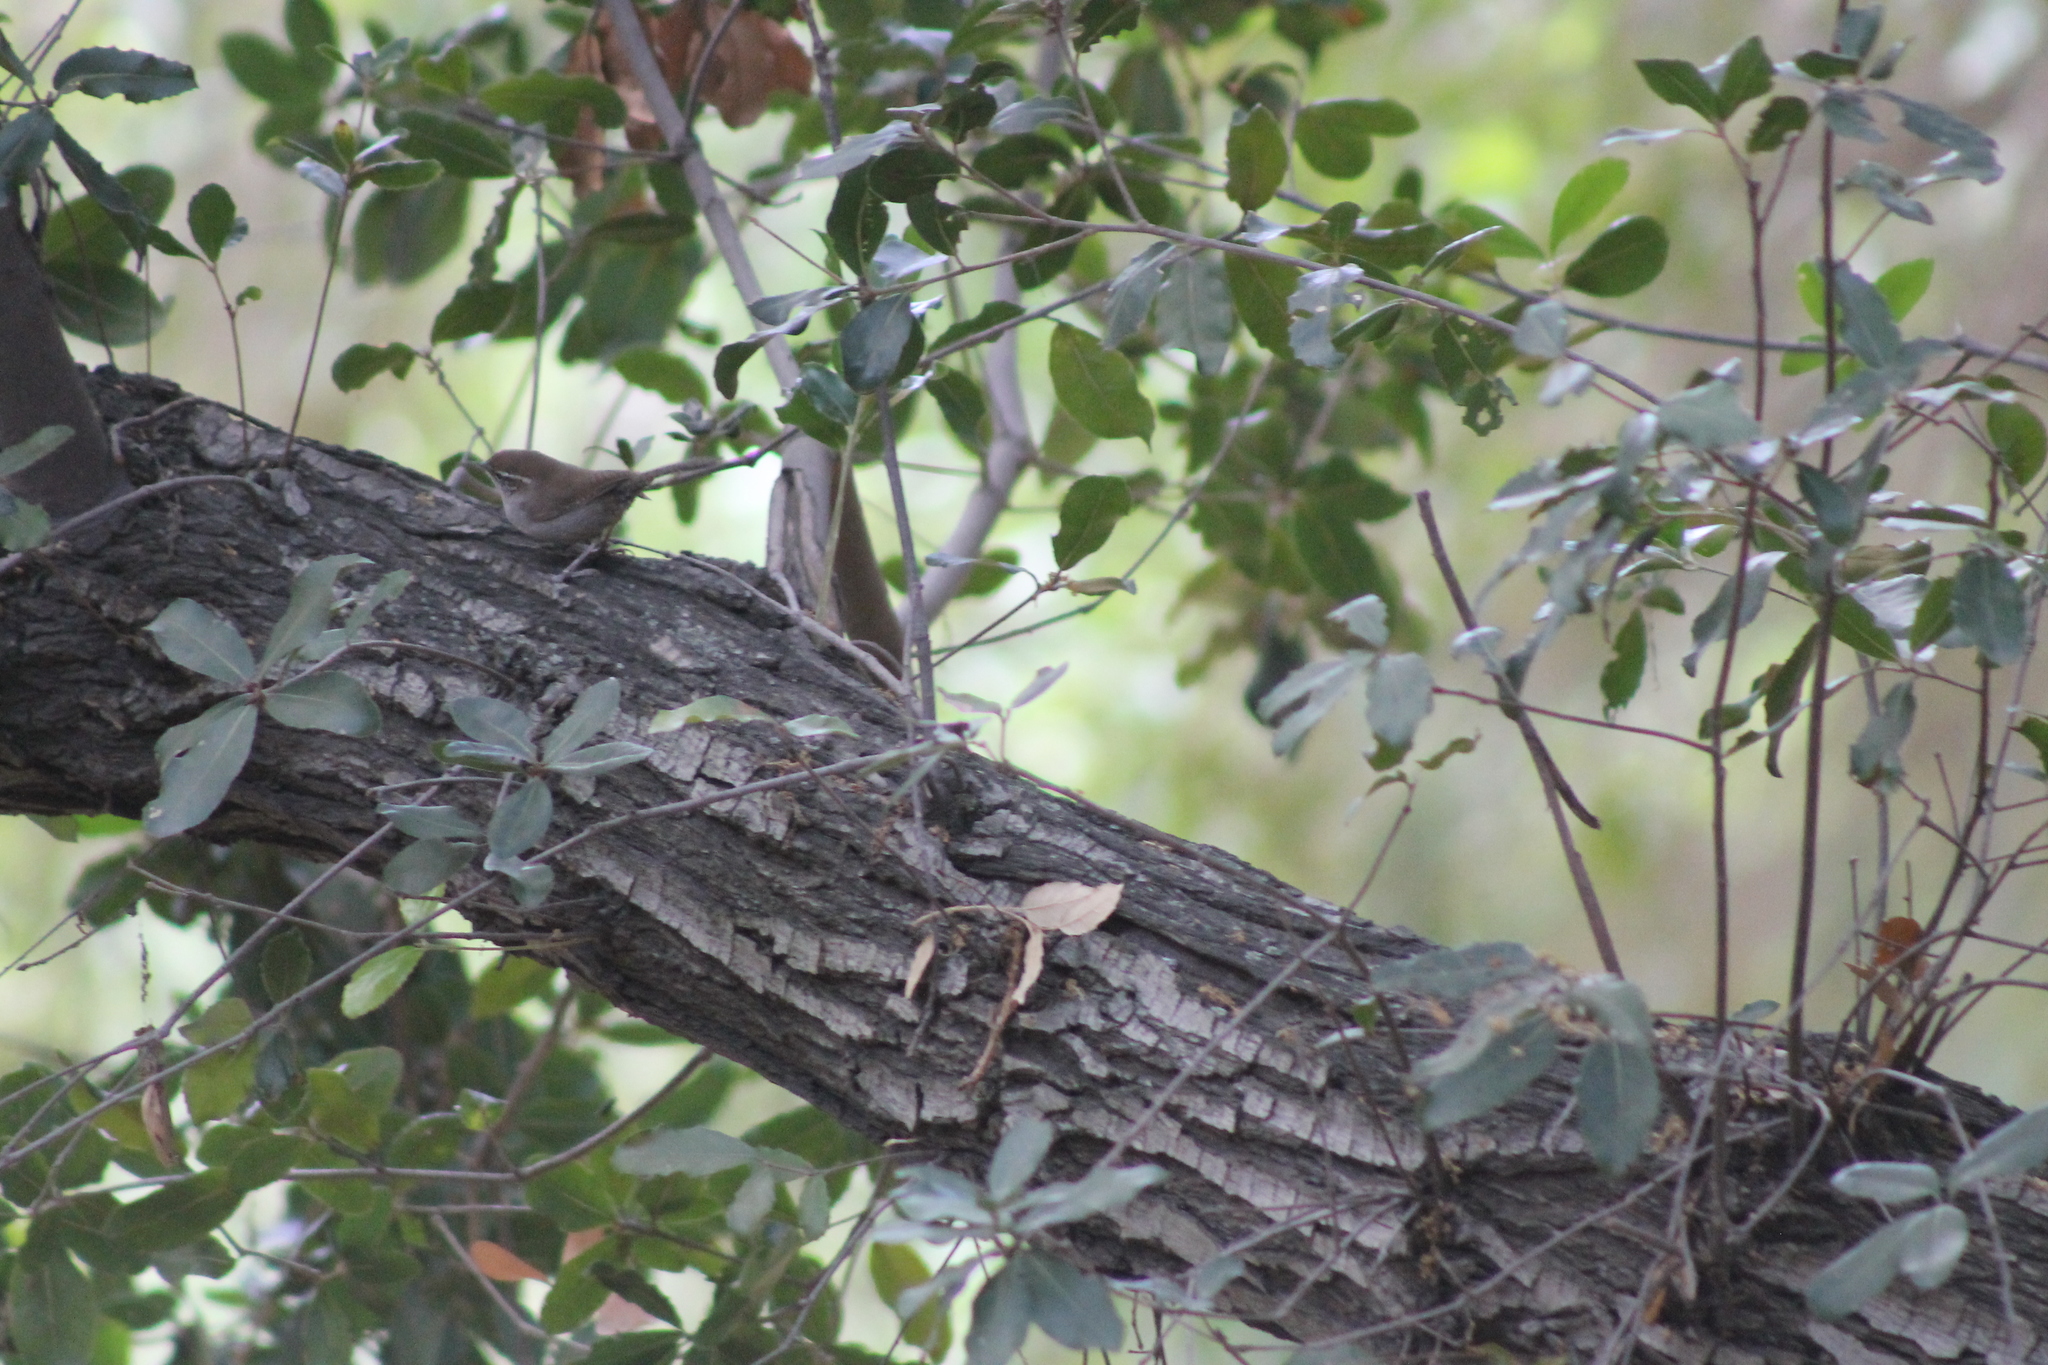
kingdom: Animalia
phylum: Chordata
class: Aves
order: Passeriformes
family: Troglodytidae
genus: Thryomanes
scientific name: Thryomanes bewickii
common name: Bewick's wren
